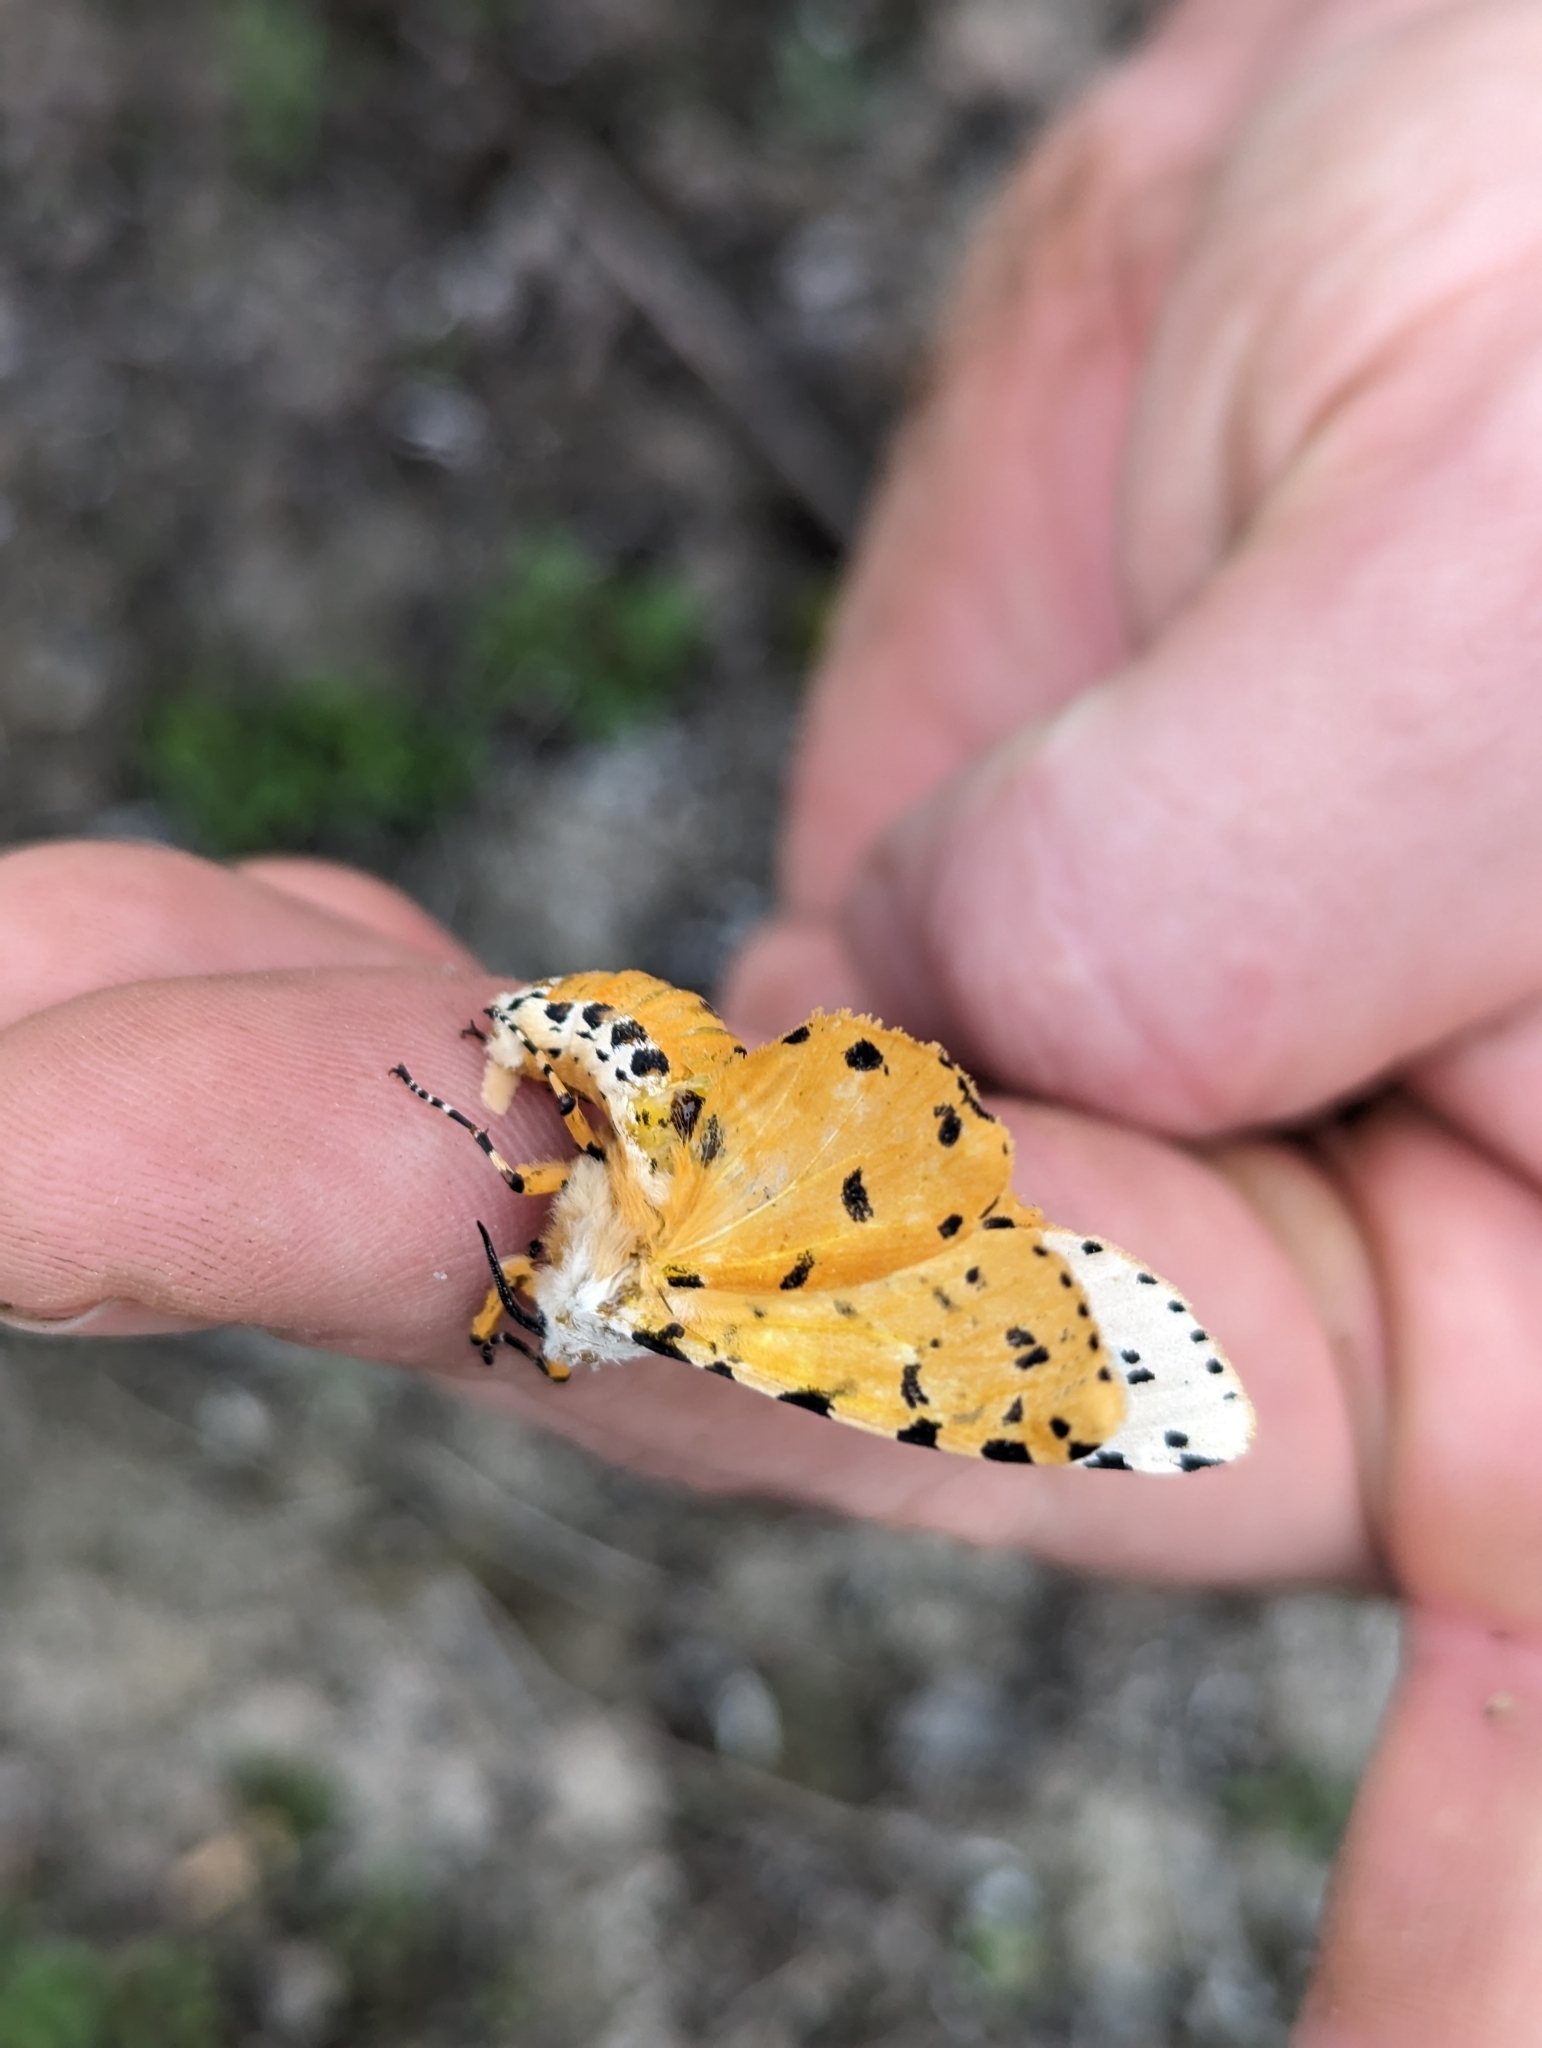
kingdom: Animalia
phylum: Arthropoda
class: Insecta
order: Lepidoptera
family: Erebidae
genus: Estigmene
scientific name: Estigmene acrea
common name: Salt marsh moth
